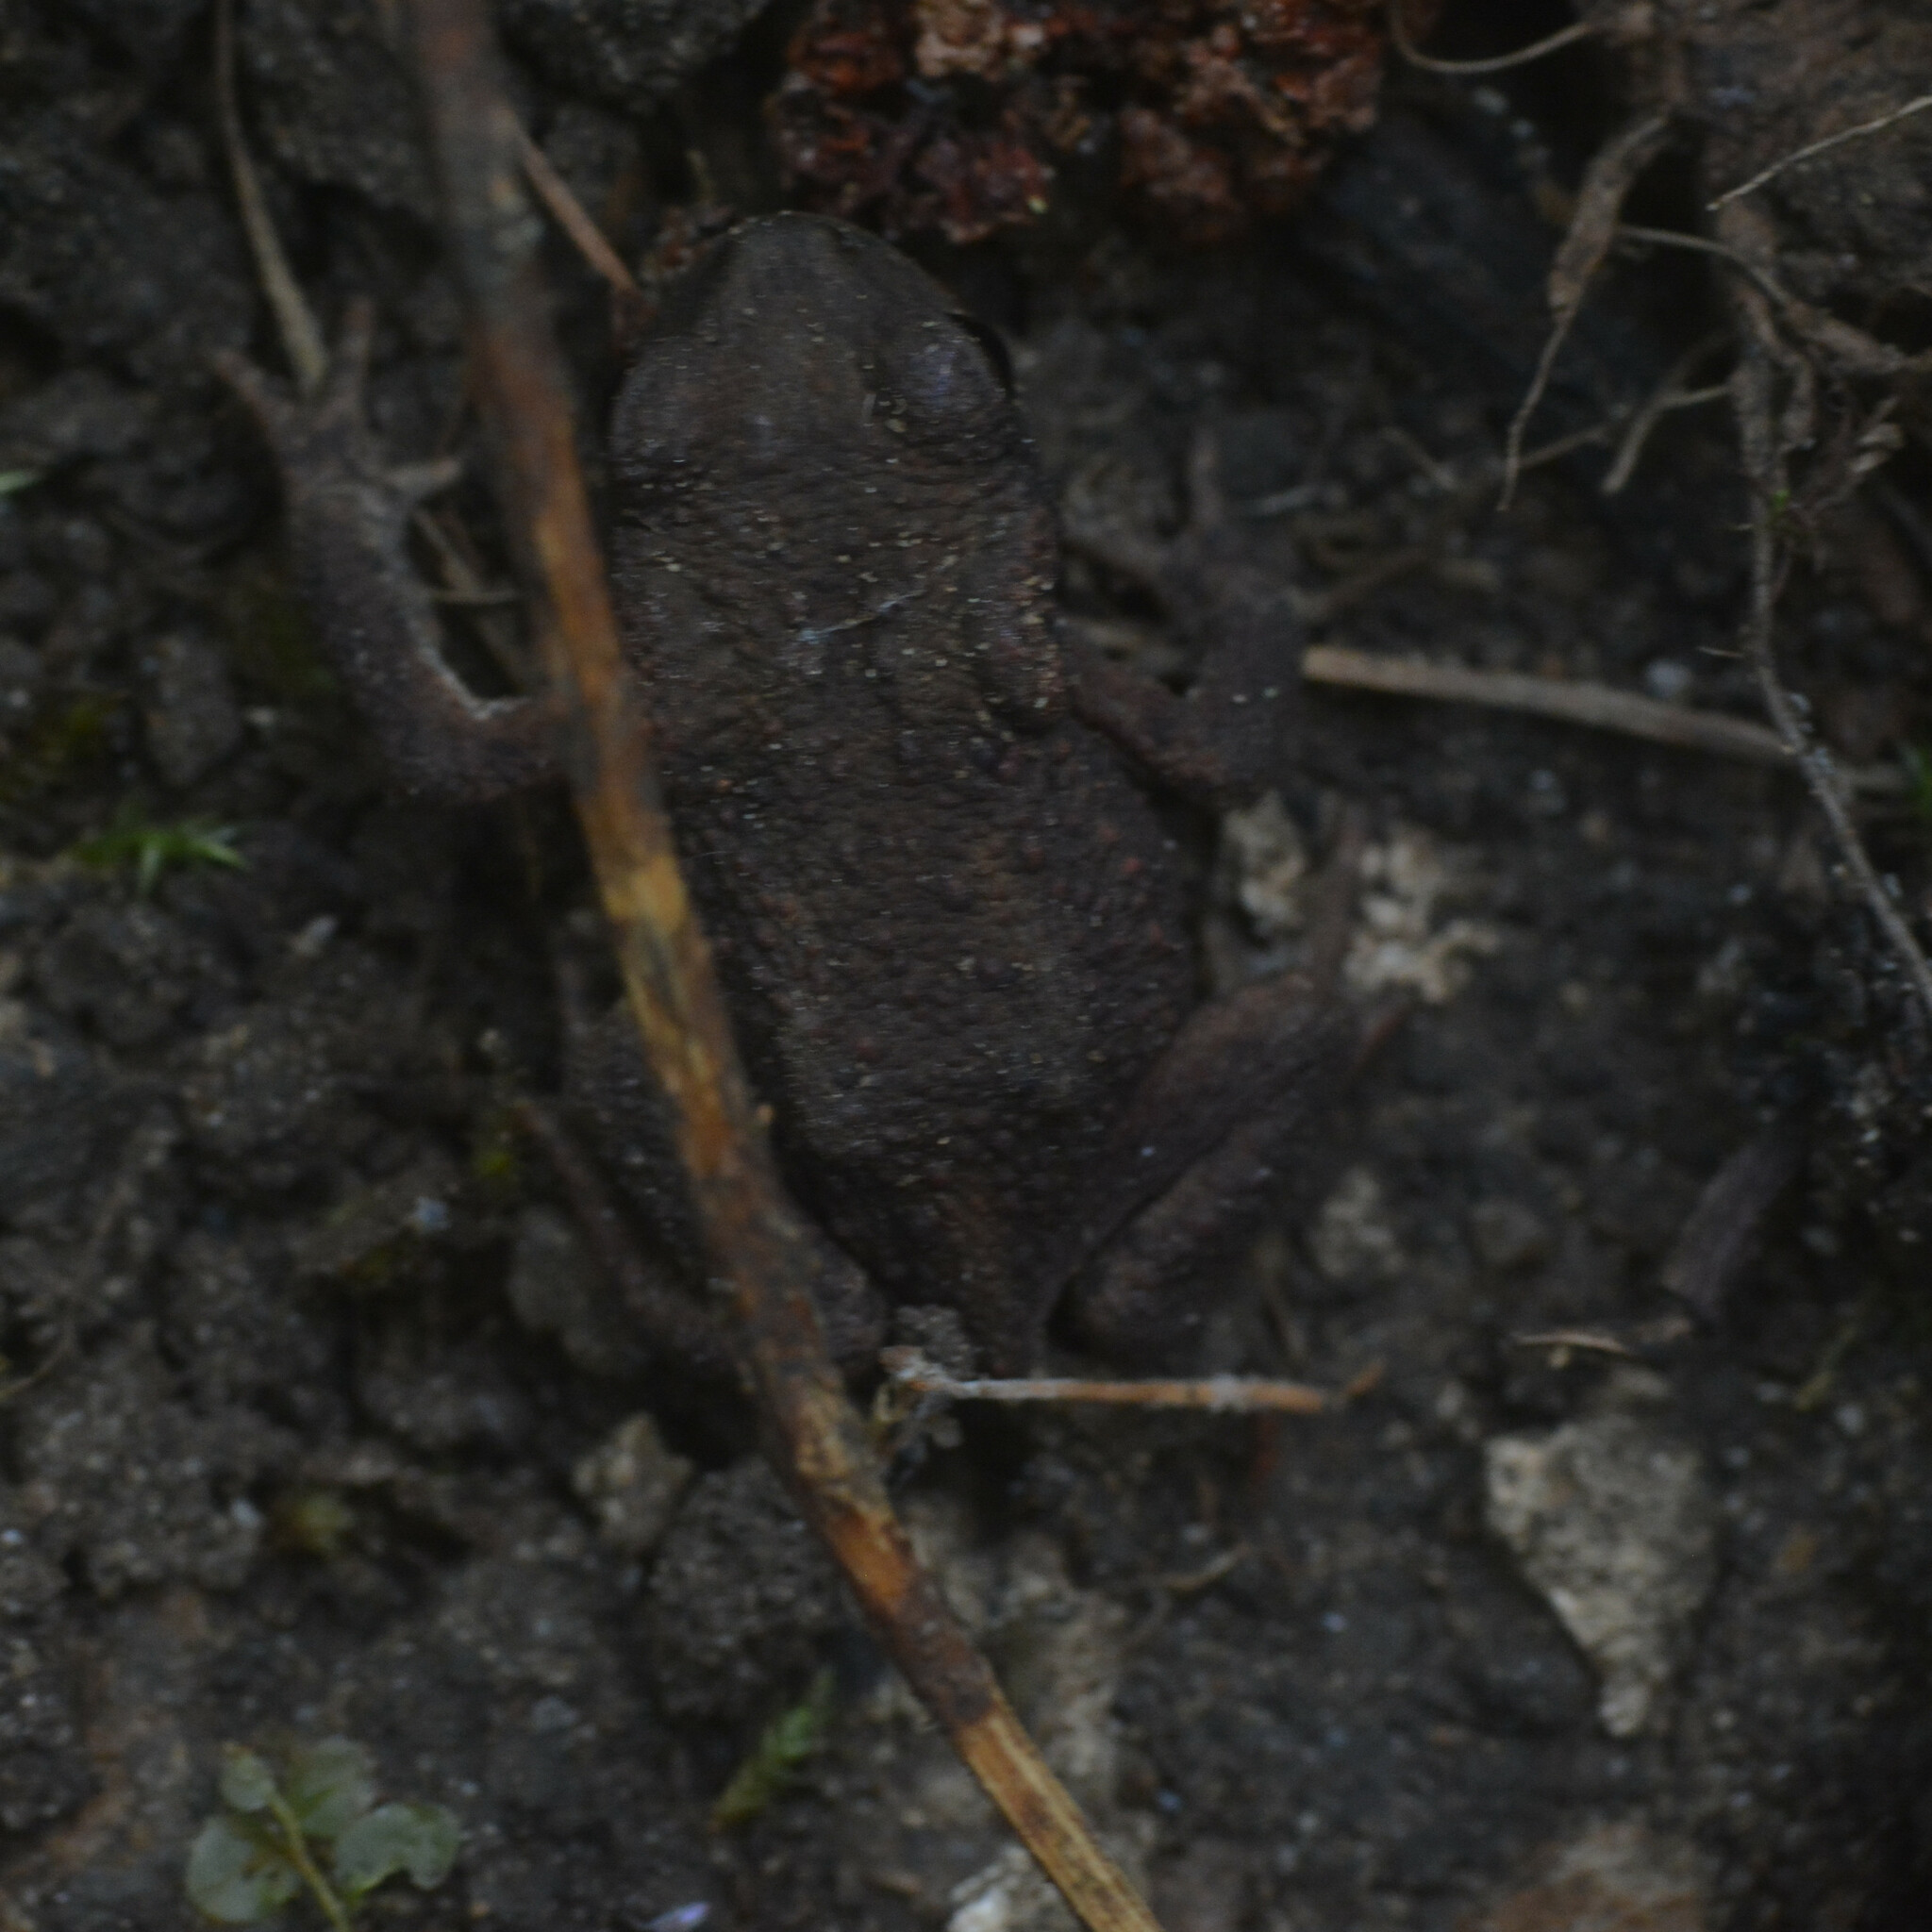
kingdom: Animalia
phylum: Chordata
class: Amphibia
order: Anura
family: Bufonidae
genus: Bufo
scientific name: Bufo bufo
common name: Common toad
